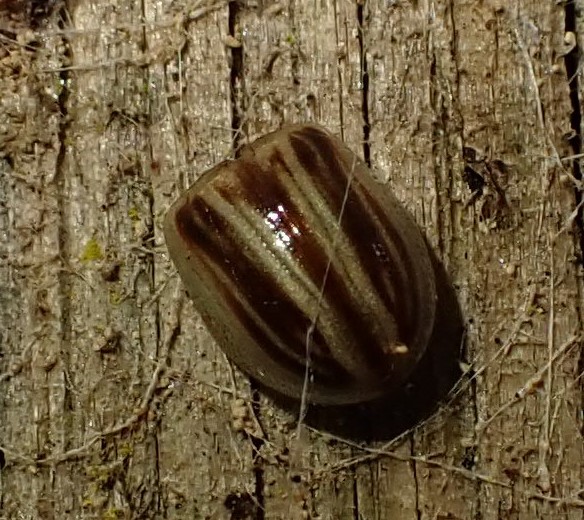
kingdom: Animalia
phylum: Arthropoda
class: Insecta
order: Coleoptera
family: Chrysomelidae
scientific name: Chrysomelidae
